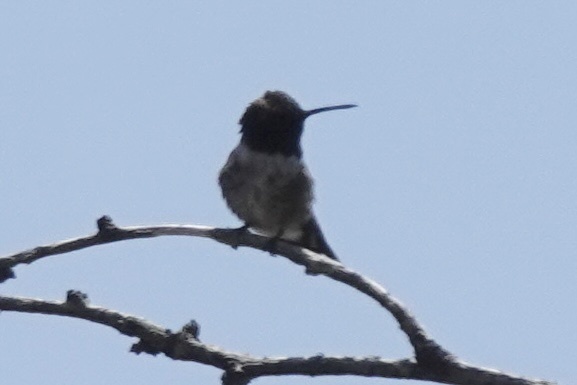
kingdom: Animalia
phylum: Chordata
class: Aves
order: Apodiformes
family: Trochilidae
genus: Archilochus
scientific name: Archilochus alexandri
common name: Black-chinned hummingbird
